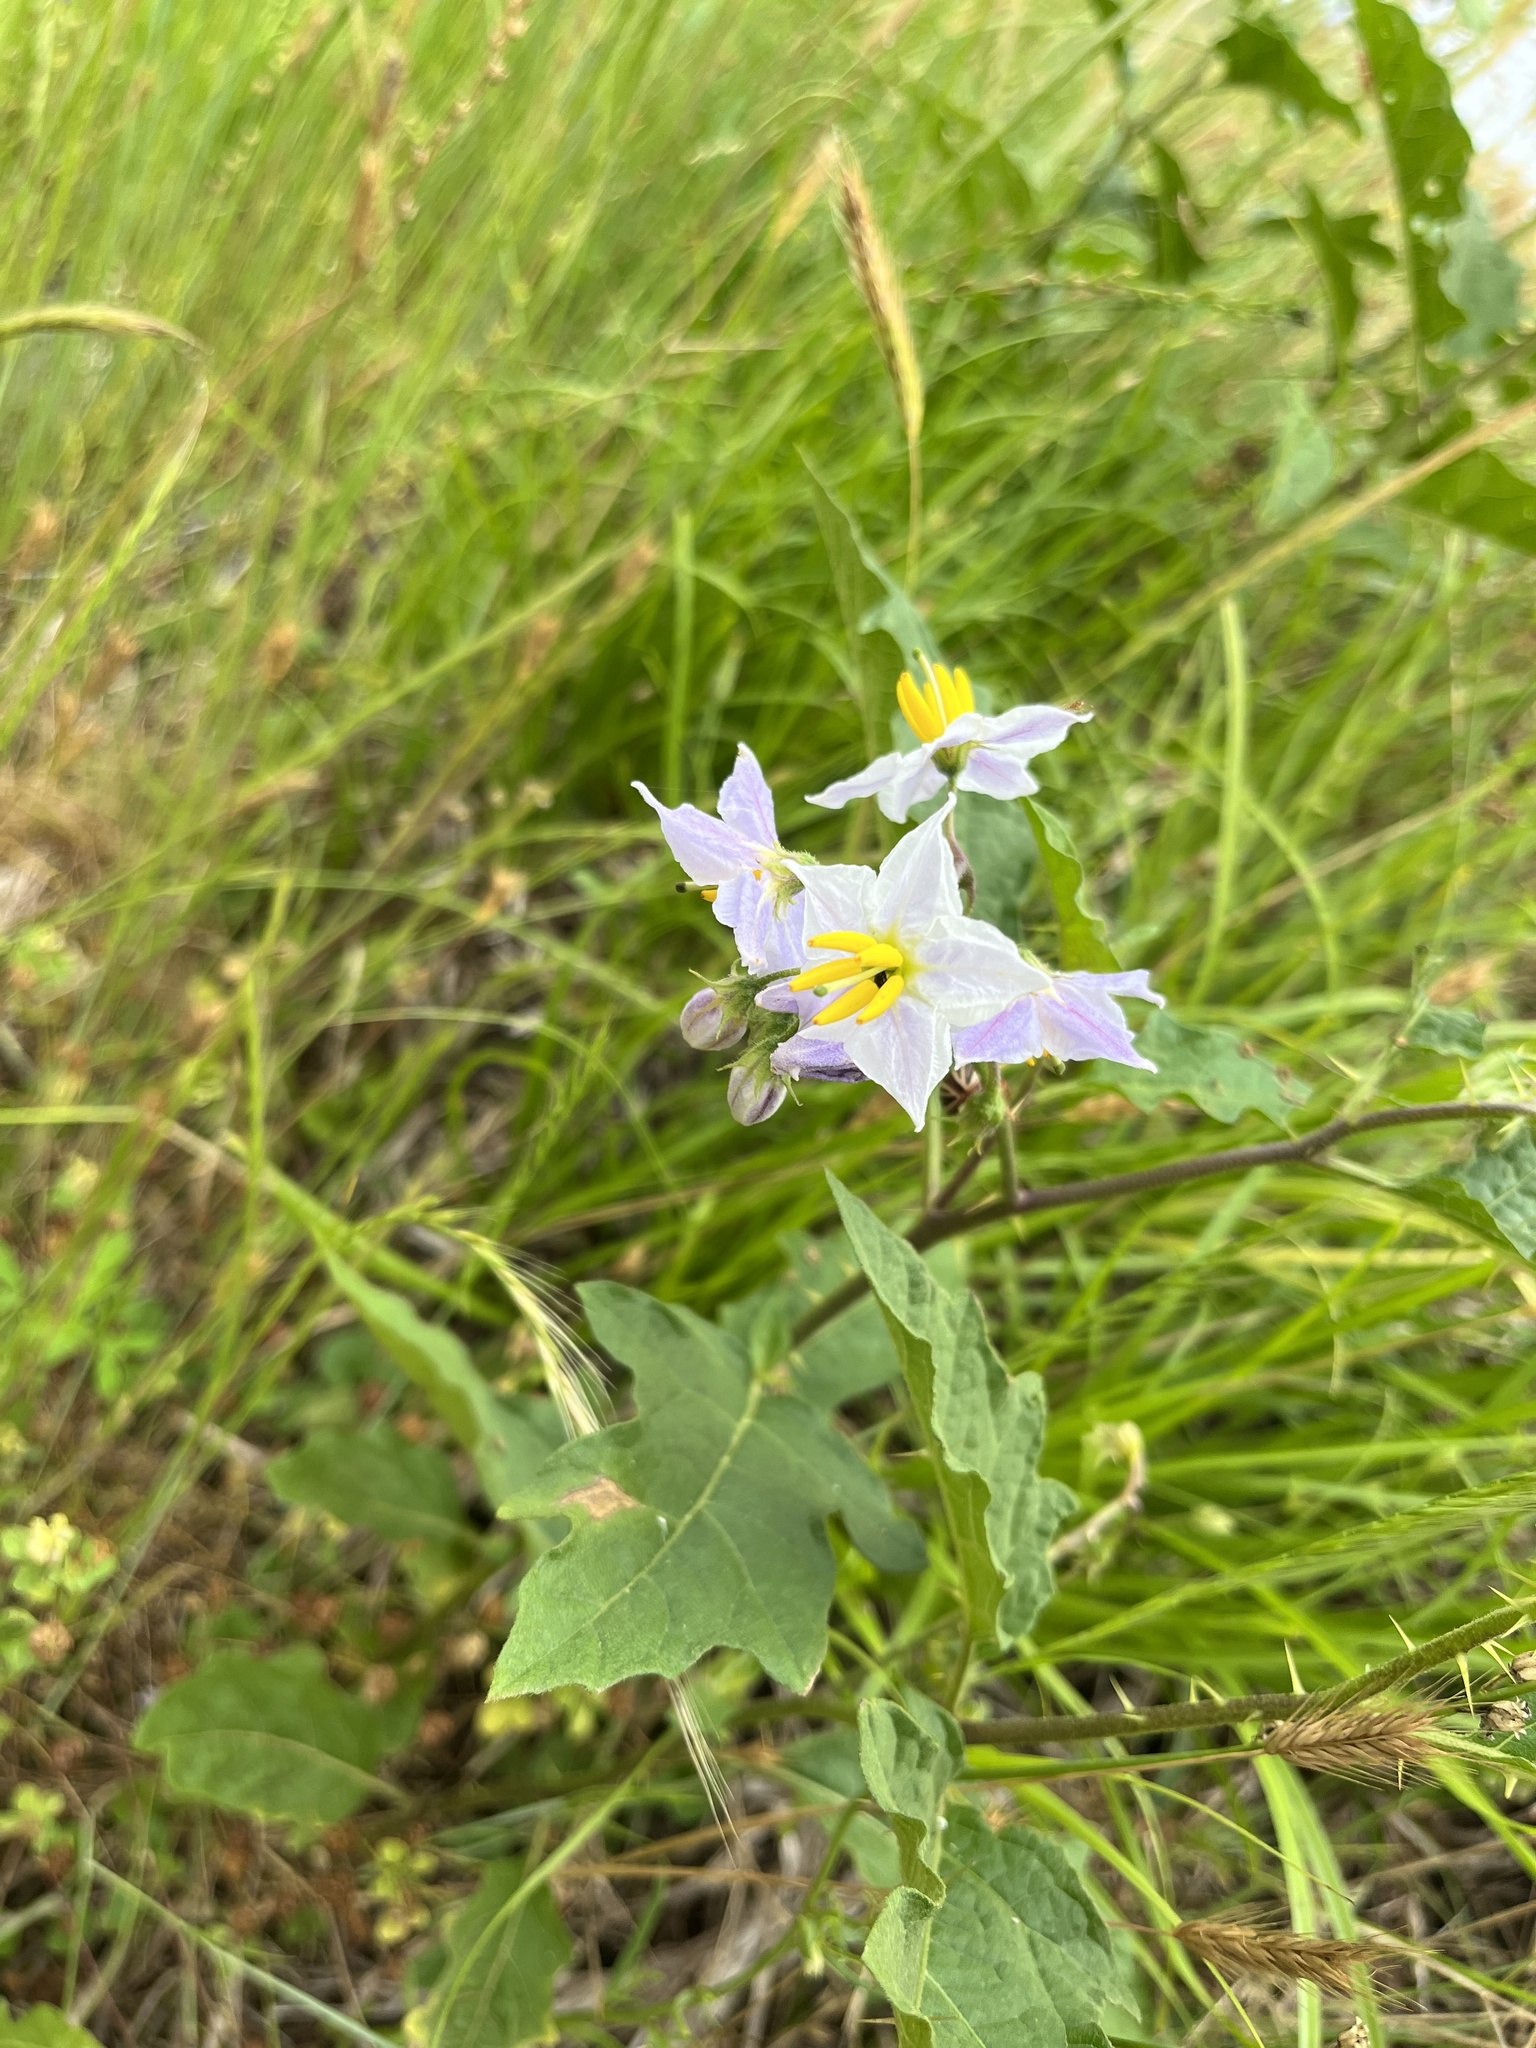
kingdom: Plantae
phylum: Tracheophyta
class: Magnoliopsida
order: Solanales
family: Solanaceae
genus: Solanum
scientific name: Solanum carolinense
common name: Horse-nettle
